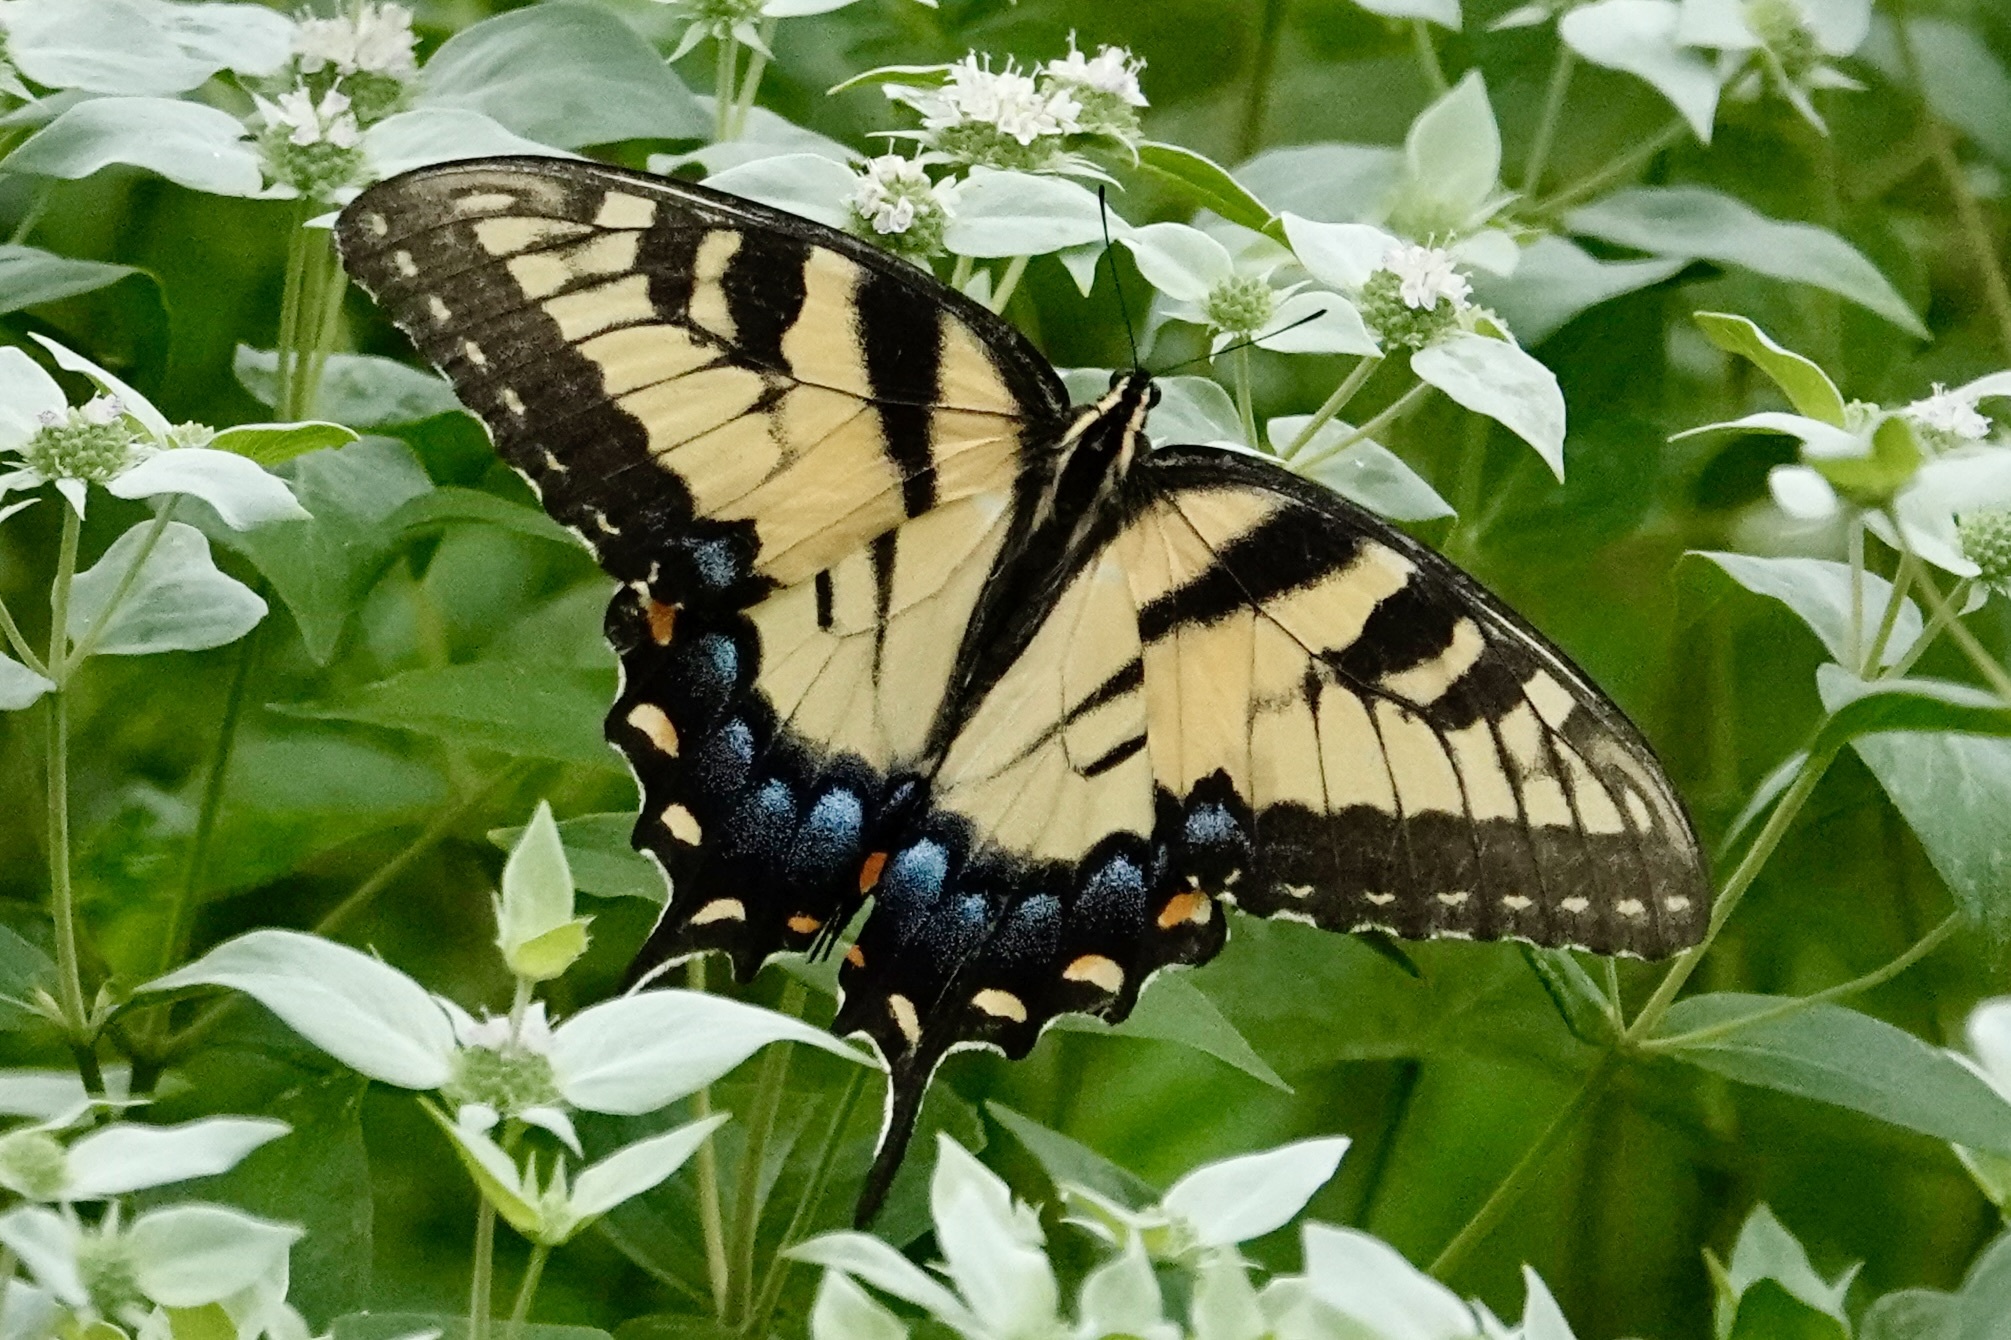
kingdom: Animalia
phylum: Arthropoda
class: Insecta
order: Lepidoptera
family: Papilionidae
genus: Papilio
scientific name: Papilio glaucus
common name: Tiger swallowtail
